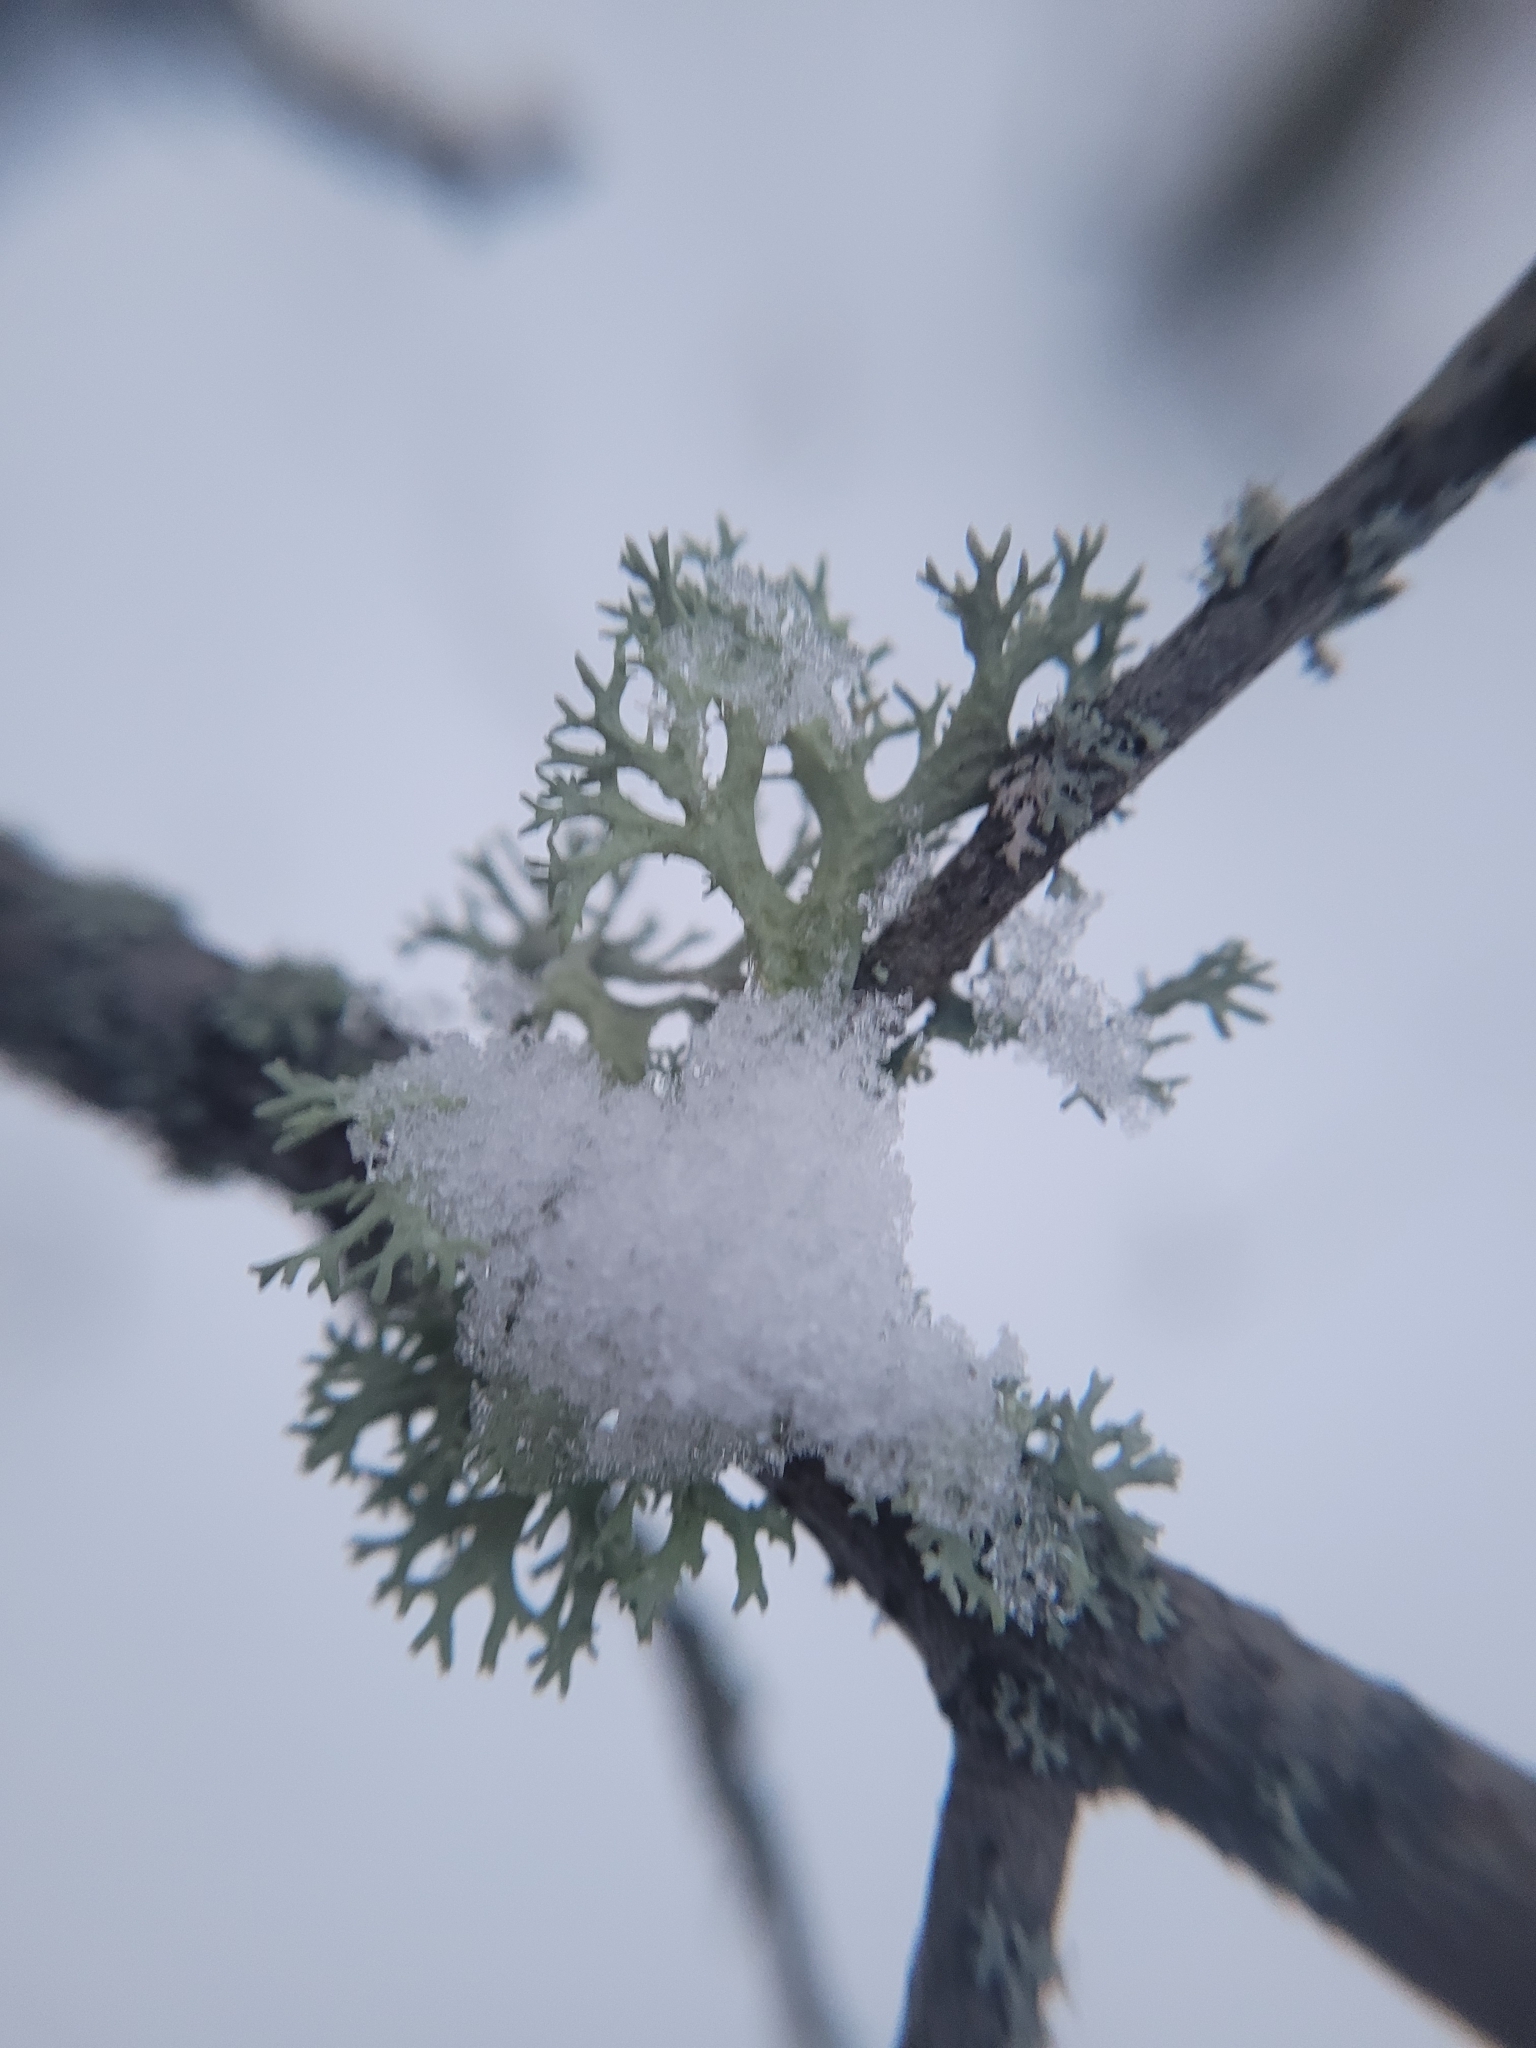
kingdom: Fungi
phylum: Ascomycota
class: Lecanoromycetes
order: Lecanorales
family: Parmeliaceae
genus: Evernia
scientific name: Evernia prunastri
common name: Oak moss
